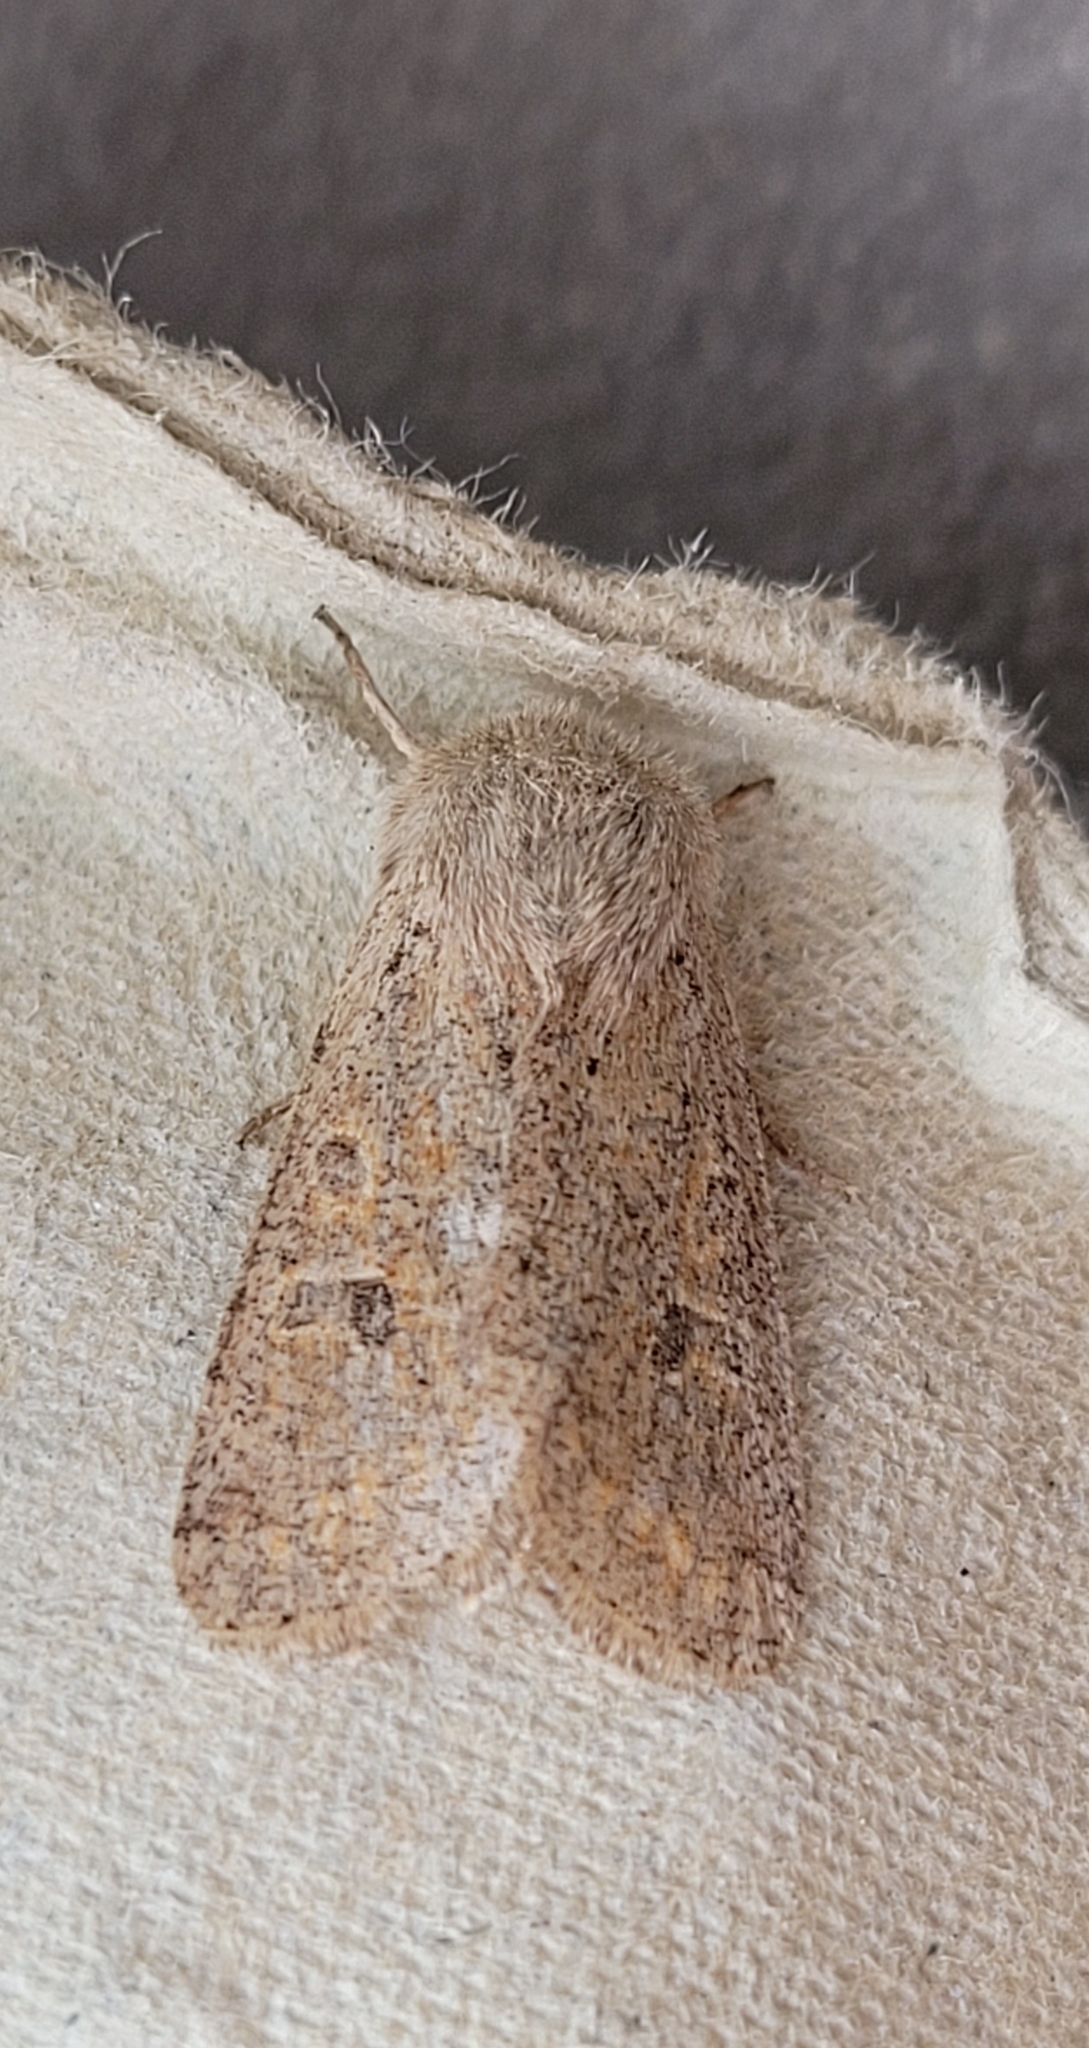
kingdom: Animalia
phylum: Arthropoda
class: Insecta
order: Lepidoptera
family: Noctuidae
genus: Orthosia
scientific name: Orthosia cruda
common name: Small quaker
